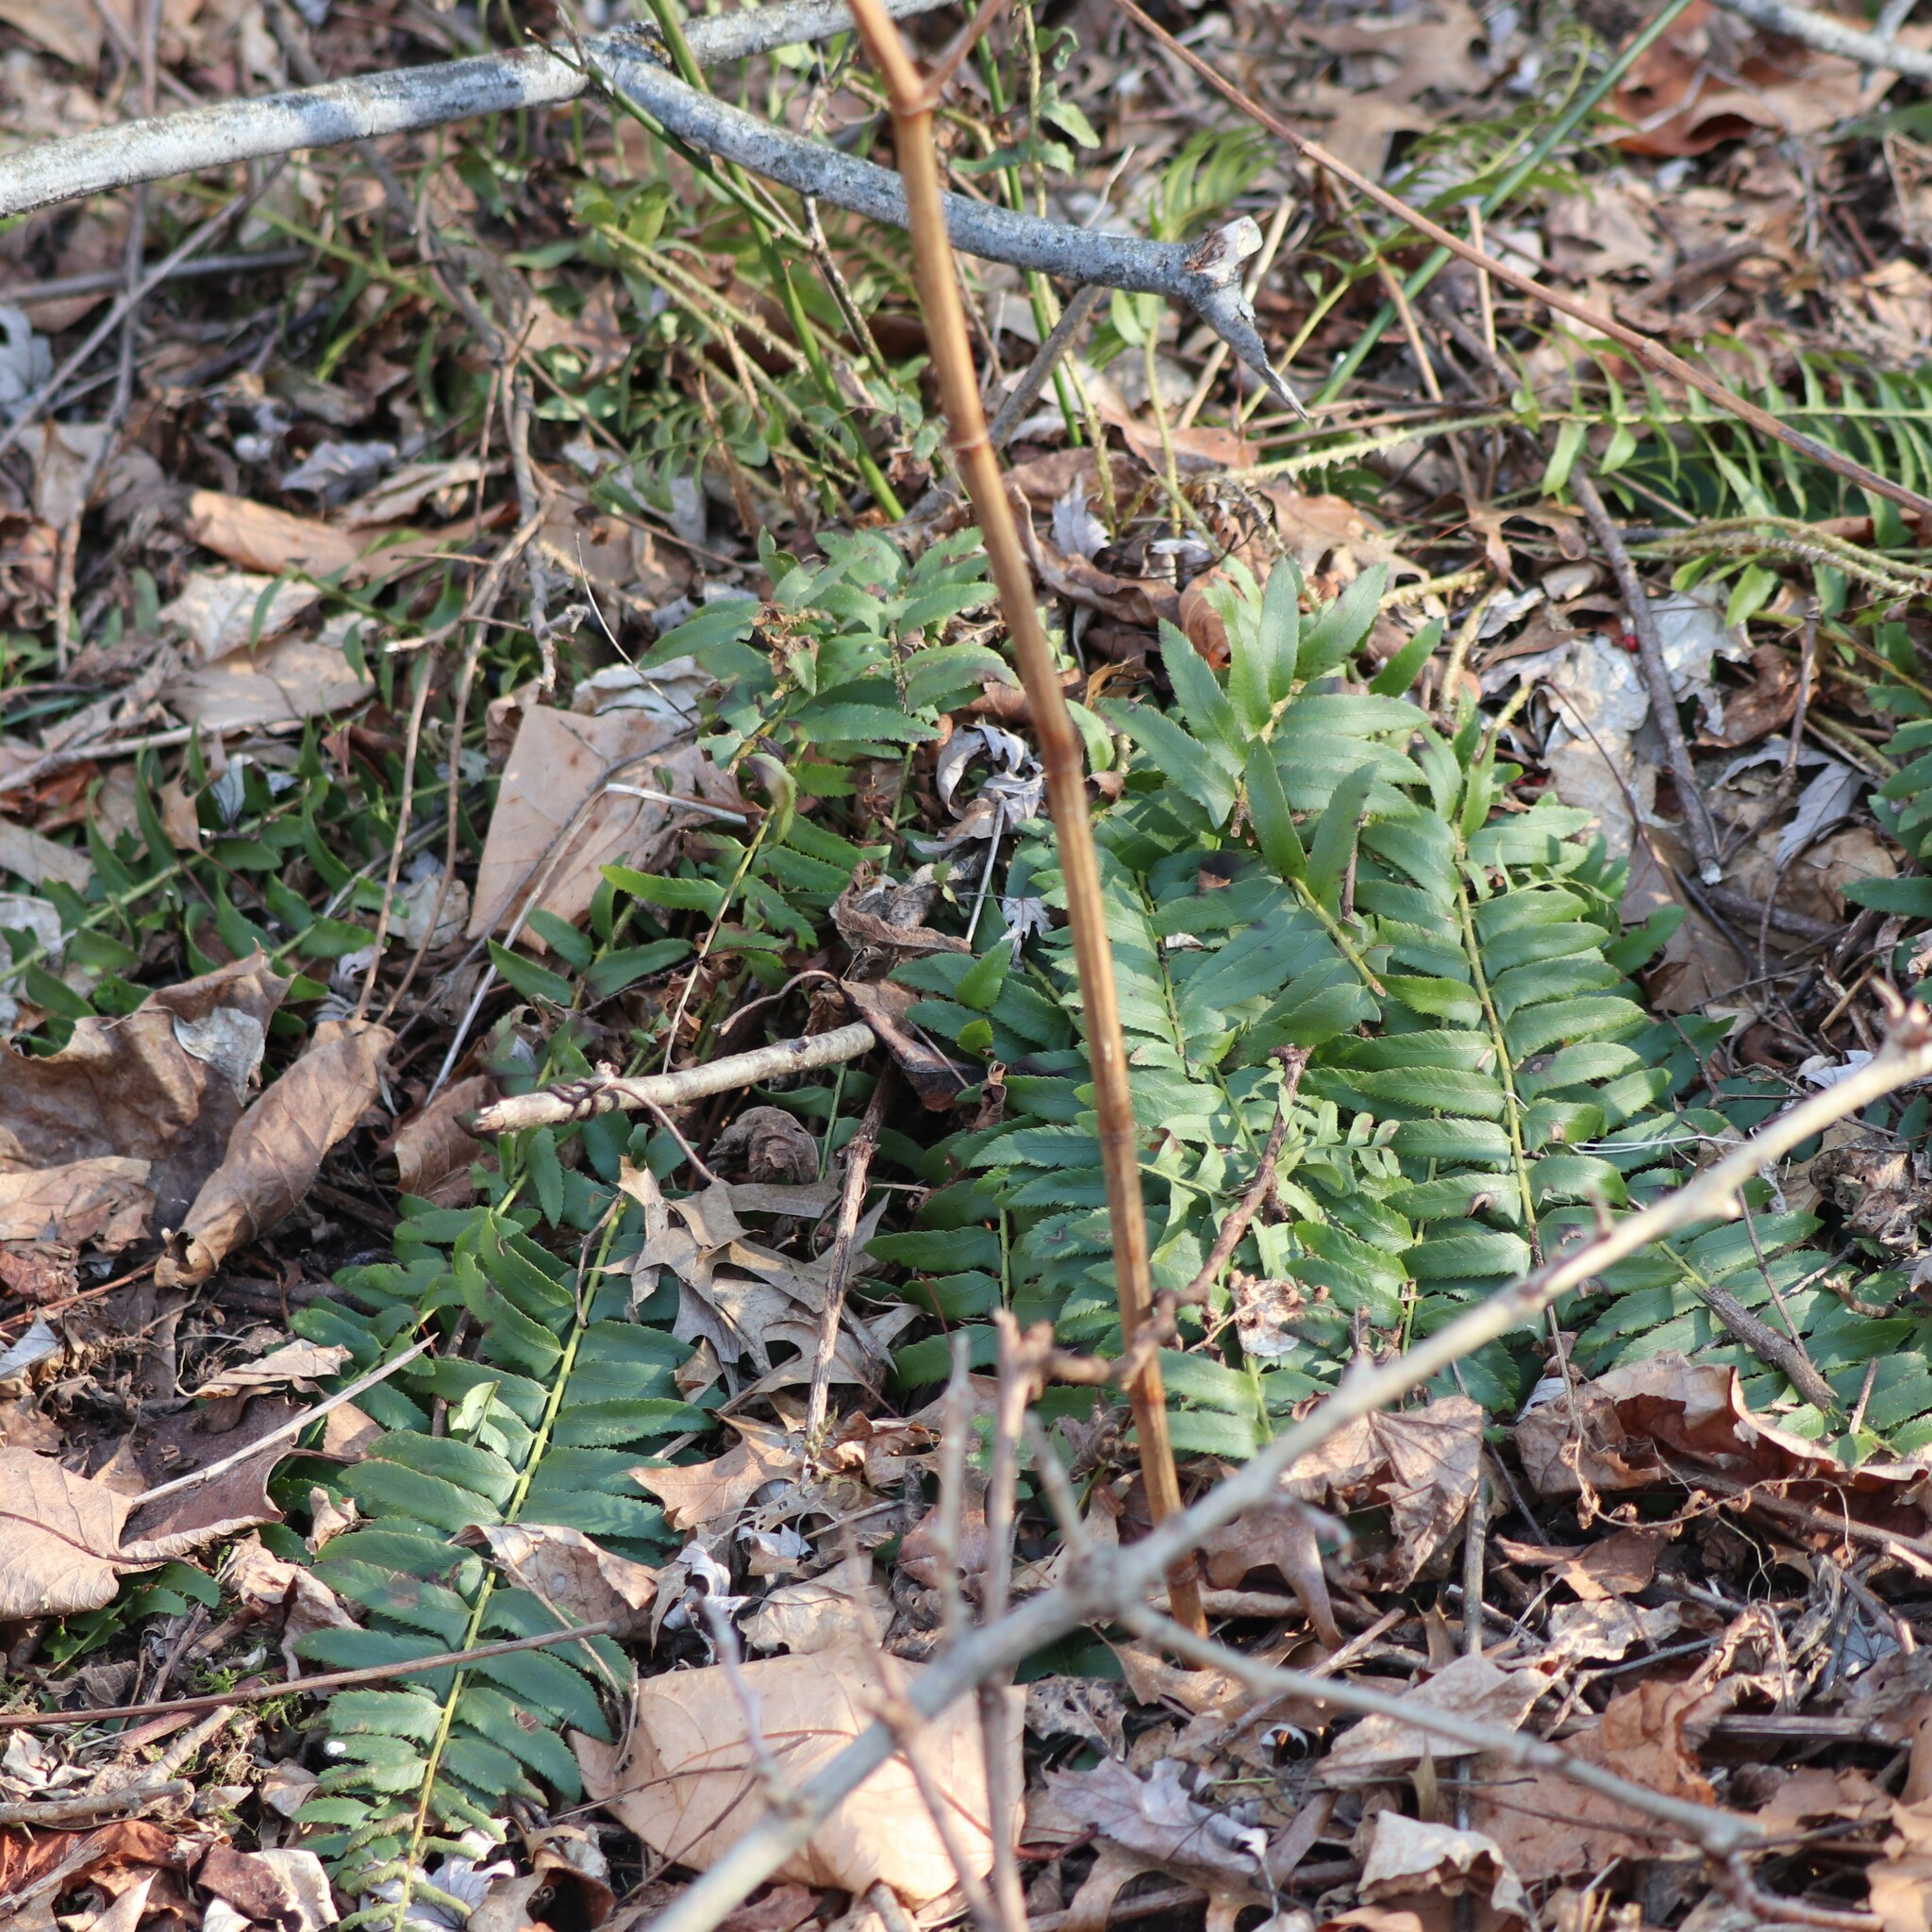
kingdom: Plantae
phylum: Tracheophyta
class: Polypodiopsida
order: Polypodiales
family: Dryopteridaceae
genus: Polystichum
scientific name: Polystichum acrostichoides
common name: Christmas fern
